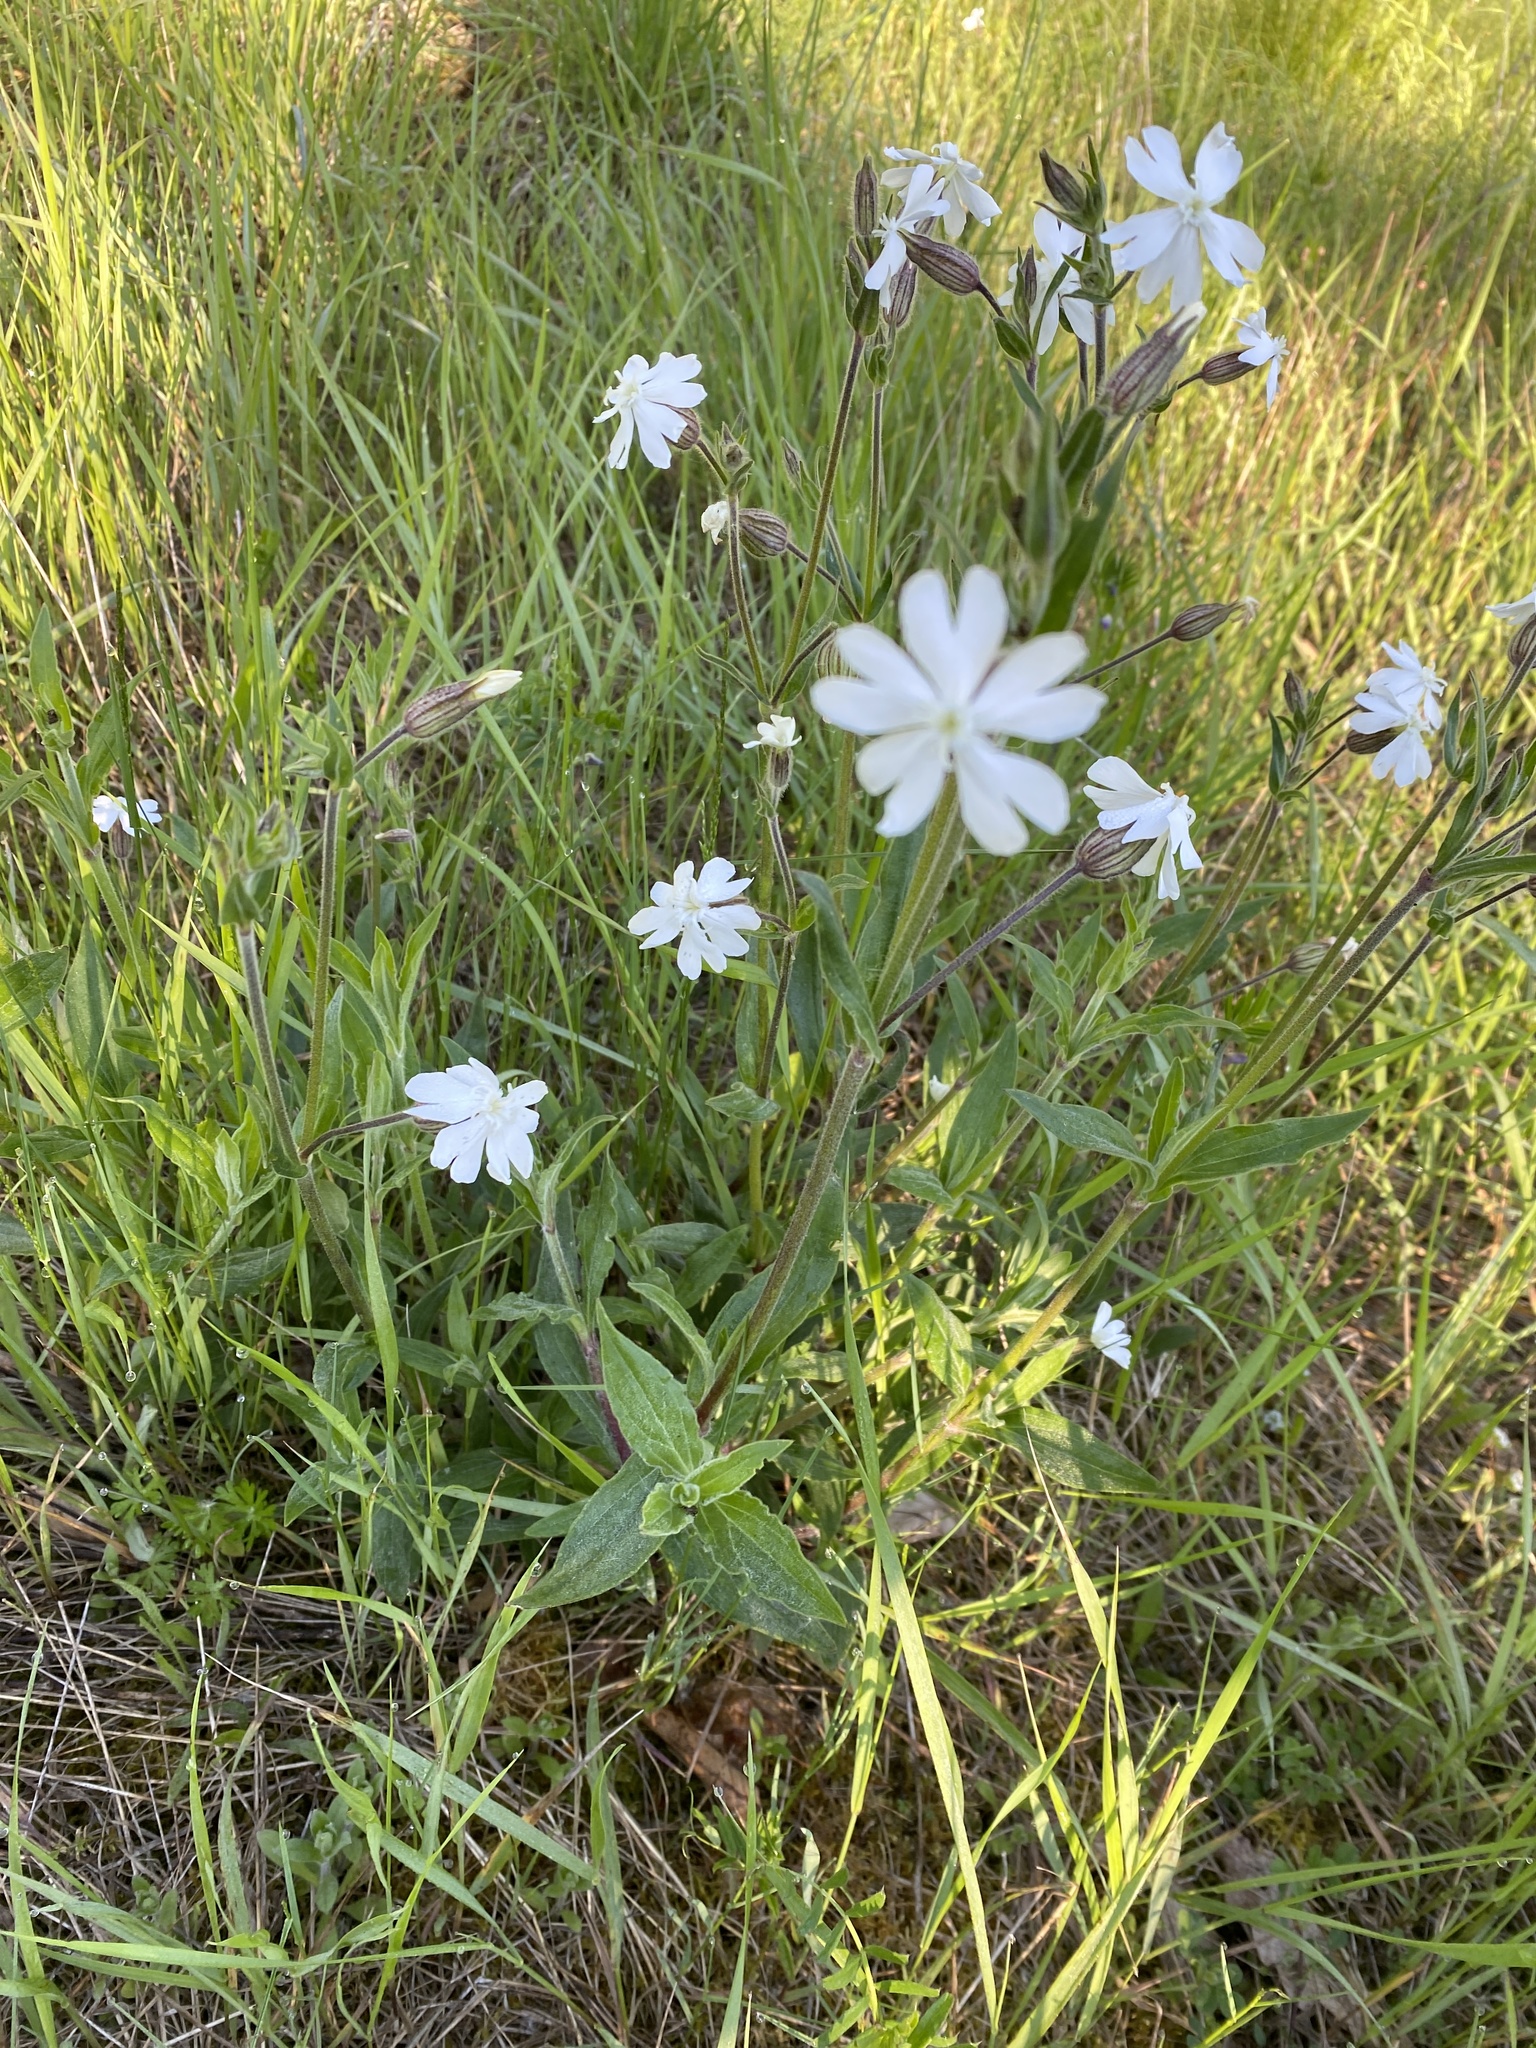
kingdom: Plantae
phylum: Tracheophyta
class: Magnoliopsida
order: Caryophyllales
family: Caryophyllaceae
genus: Silene
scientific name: Silene latifolia
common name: White campion
